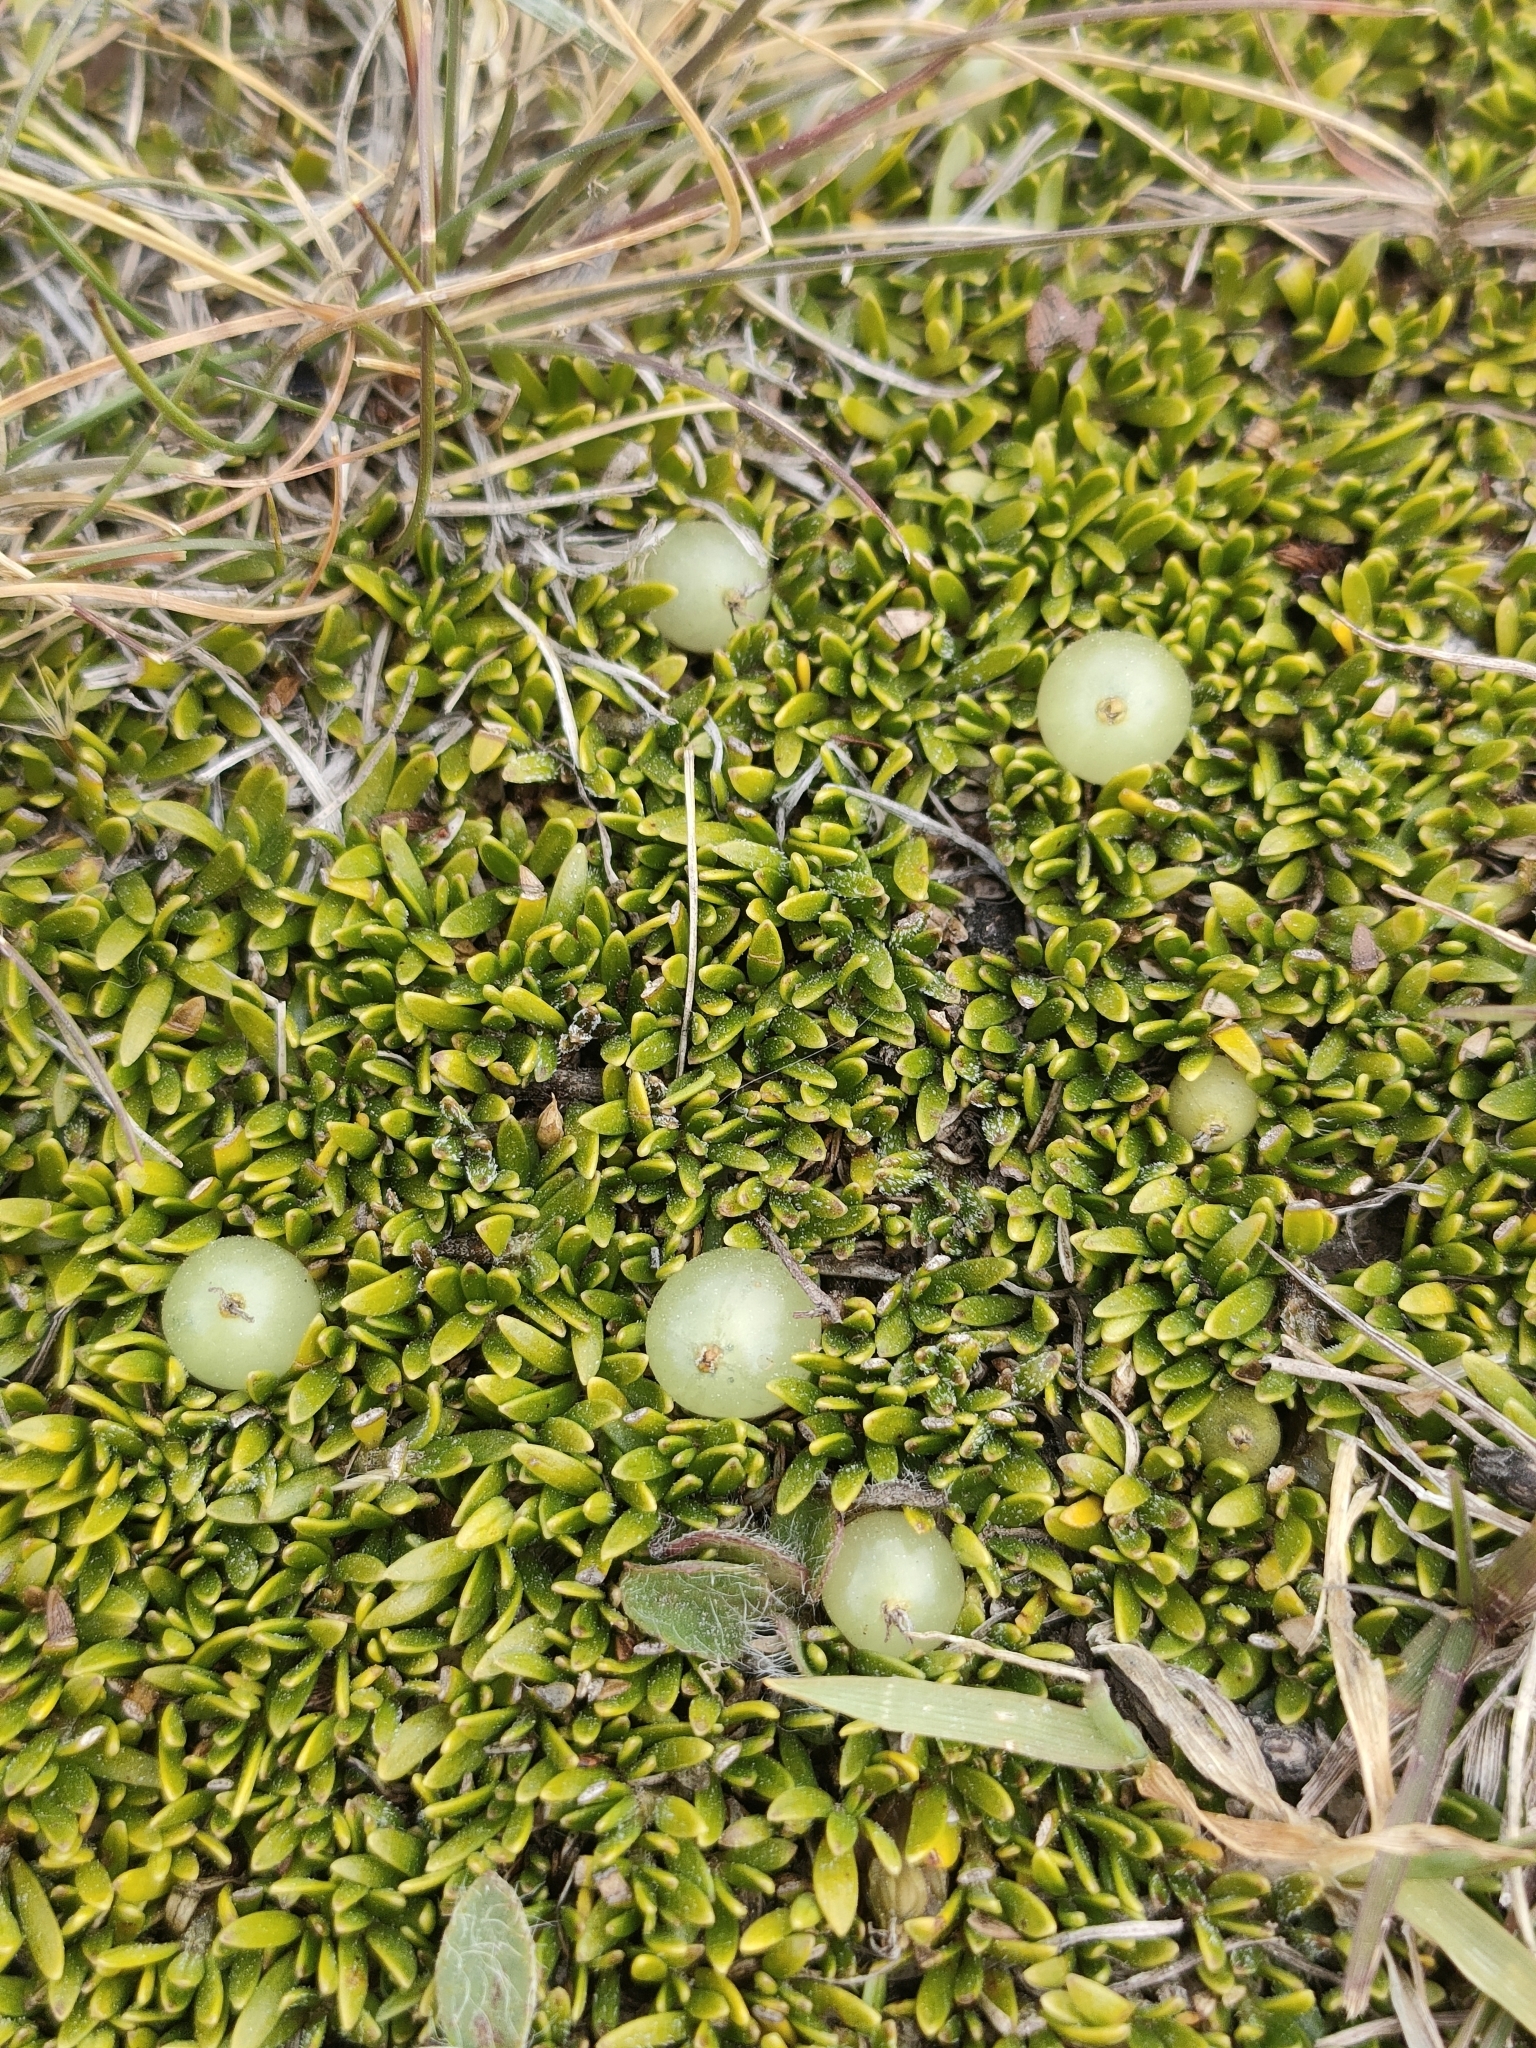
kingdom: Plantae
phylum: Tracheophyta
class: Magnoliopsida
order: Gentianales
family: Rubiaceae
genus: Coprosma
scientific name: Coprosma petriei
